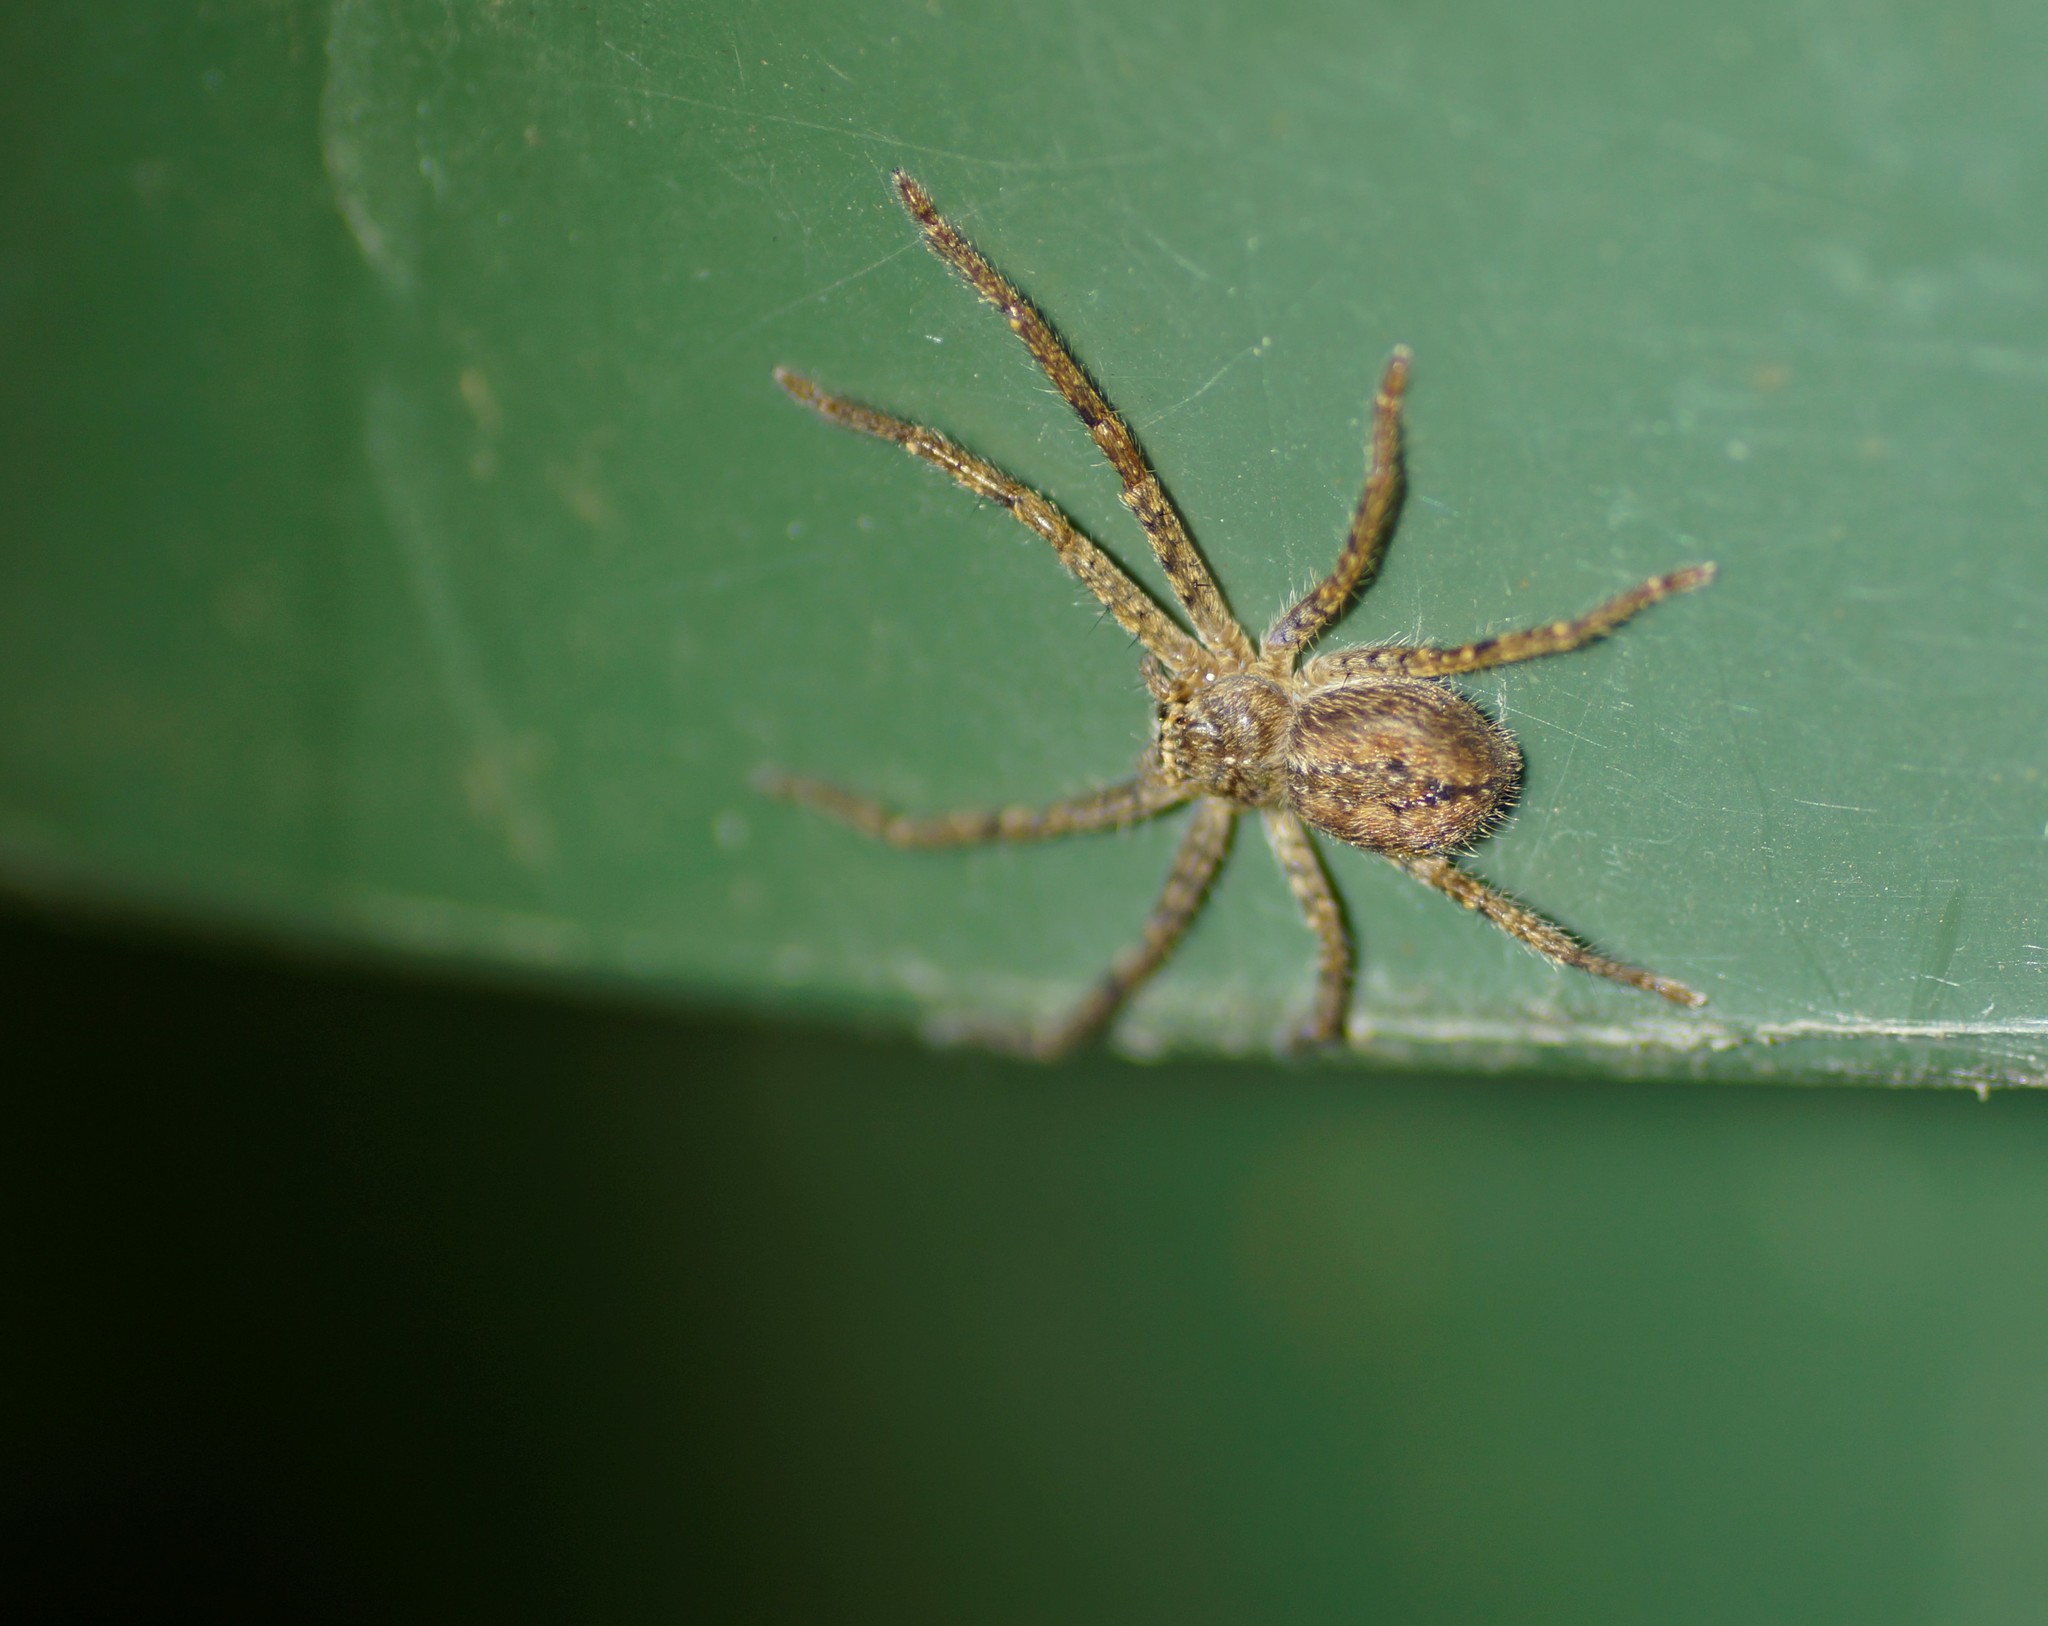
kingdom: Animalia
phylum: Arthropoda
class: Arachnida
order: Araneae
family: Sparassidae
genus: Isopedella
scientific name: Isopedella victorialis
